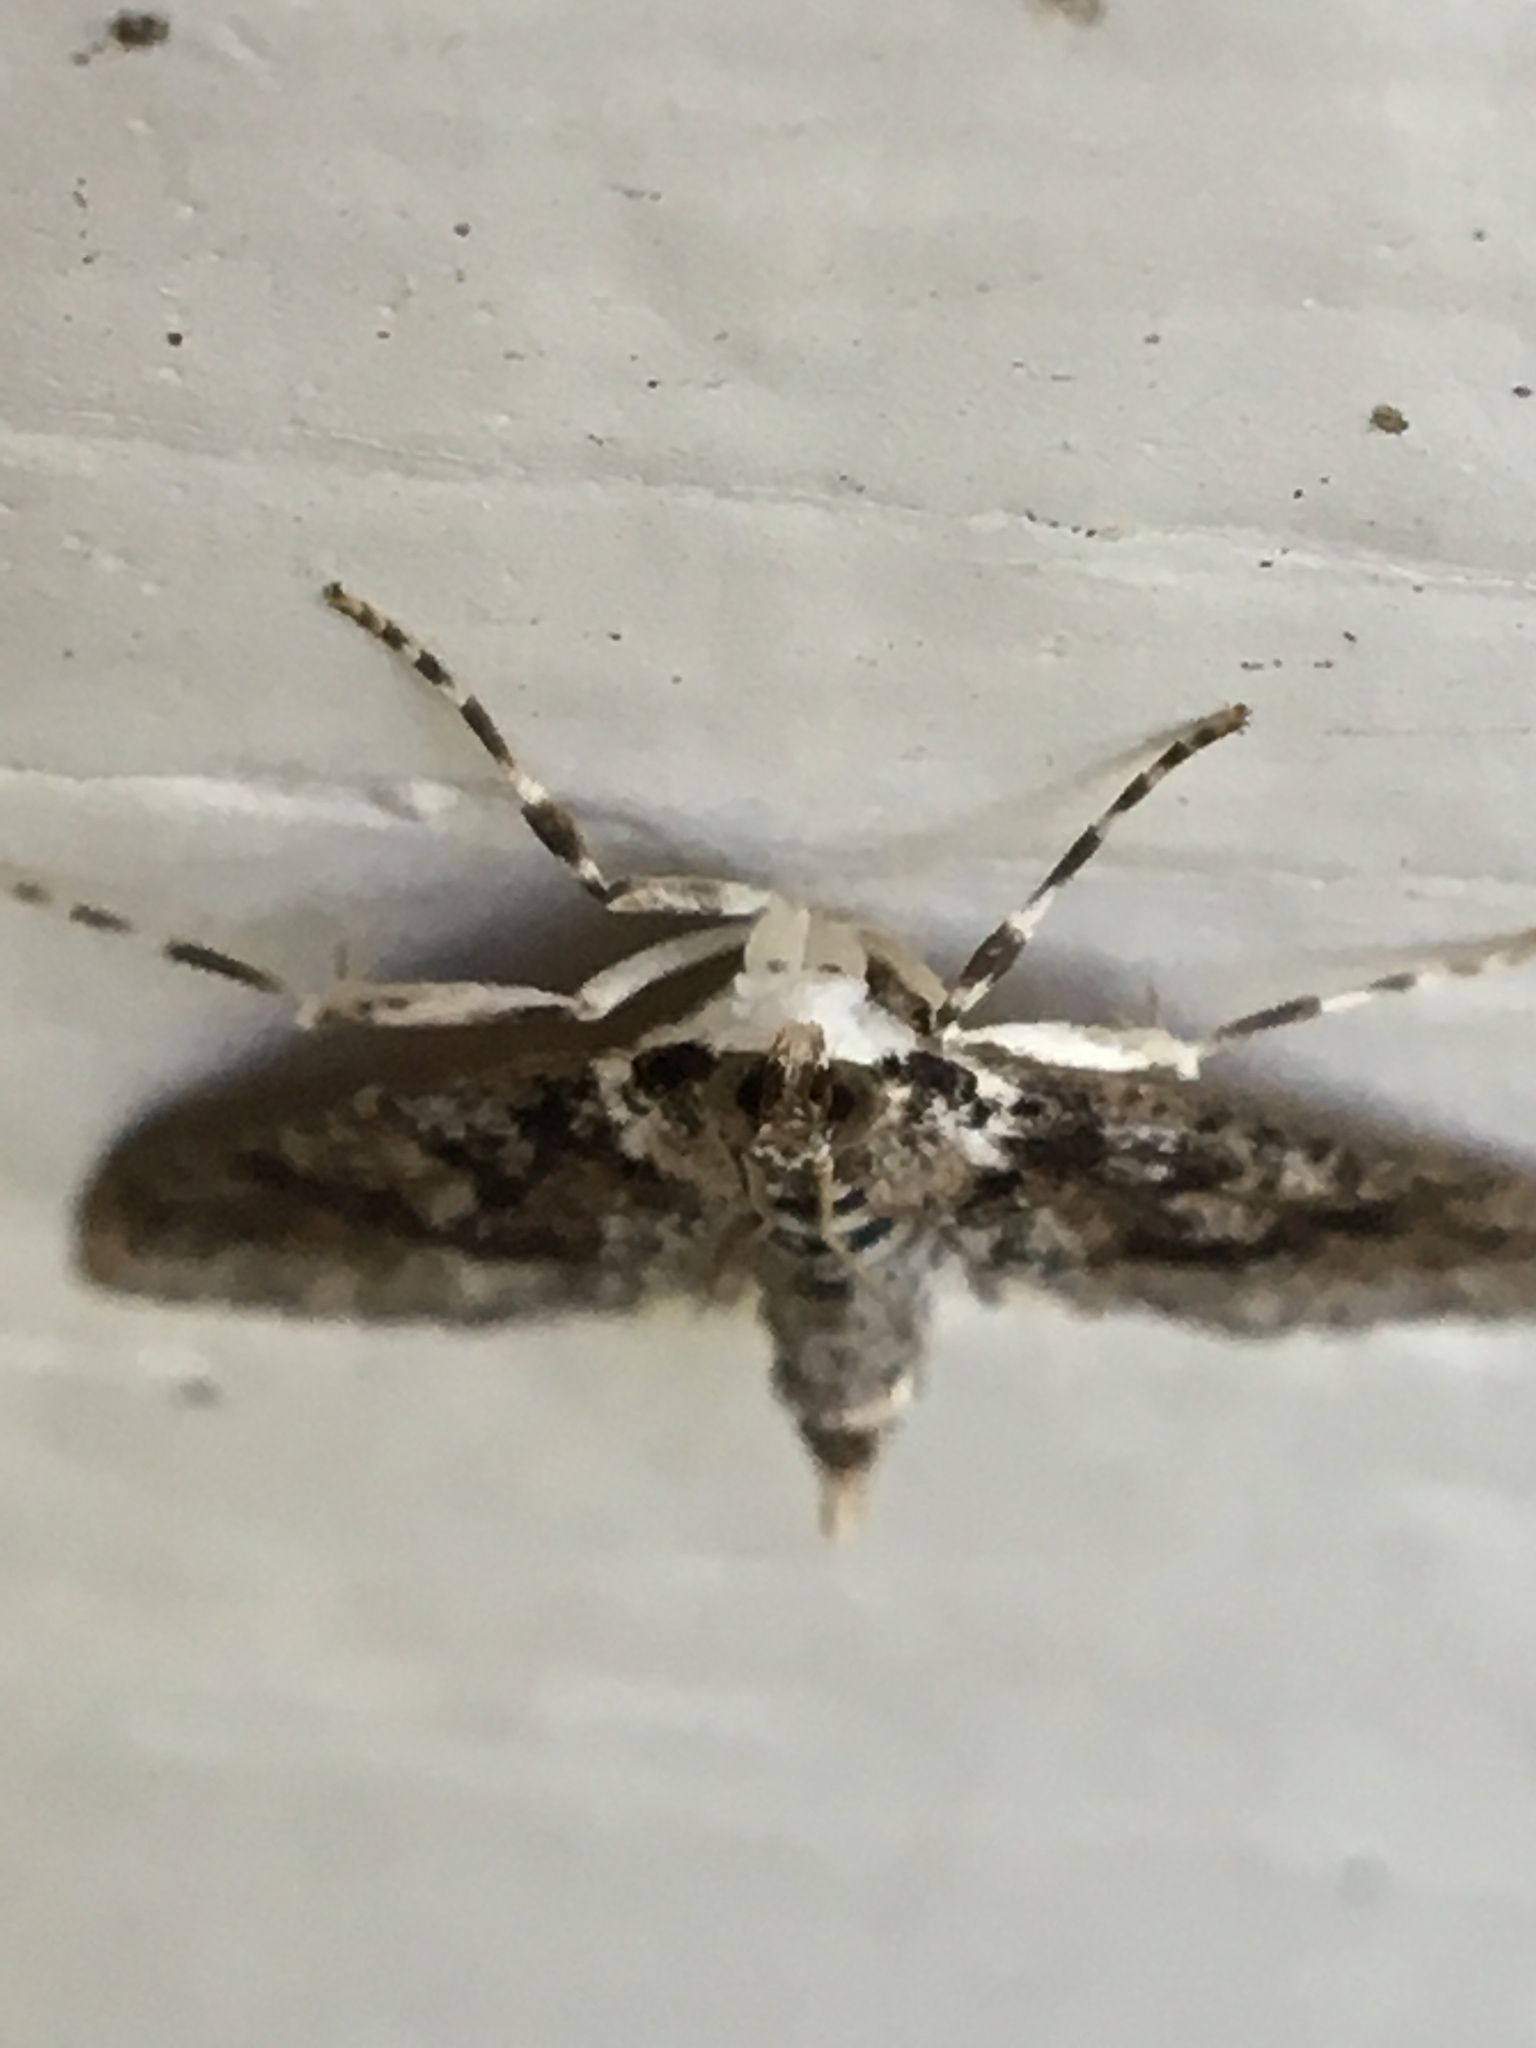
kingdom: Animalia
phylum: Arthropoda
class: Insecta
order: Lepidoptera
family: Crambidae
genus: Palpita
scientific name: Palpita magniferalis
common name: Splendid palpita moth
